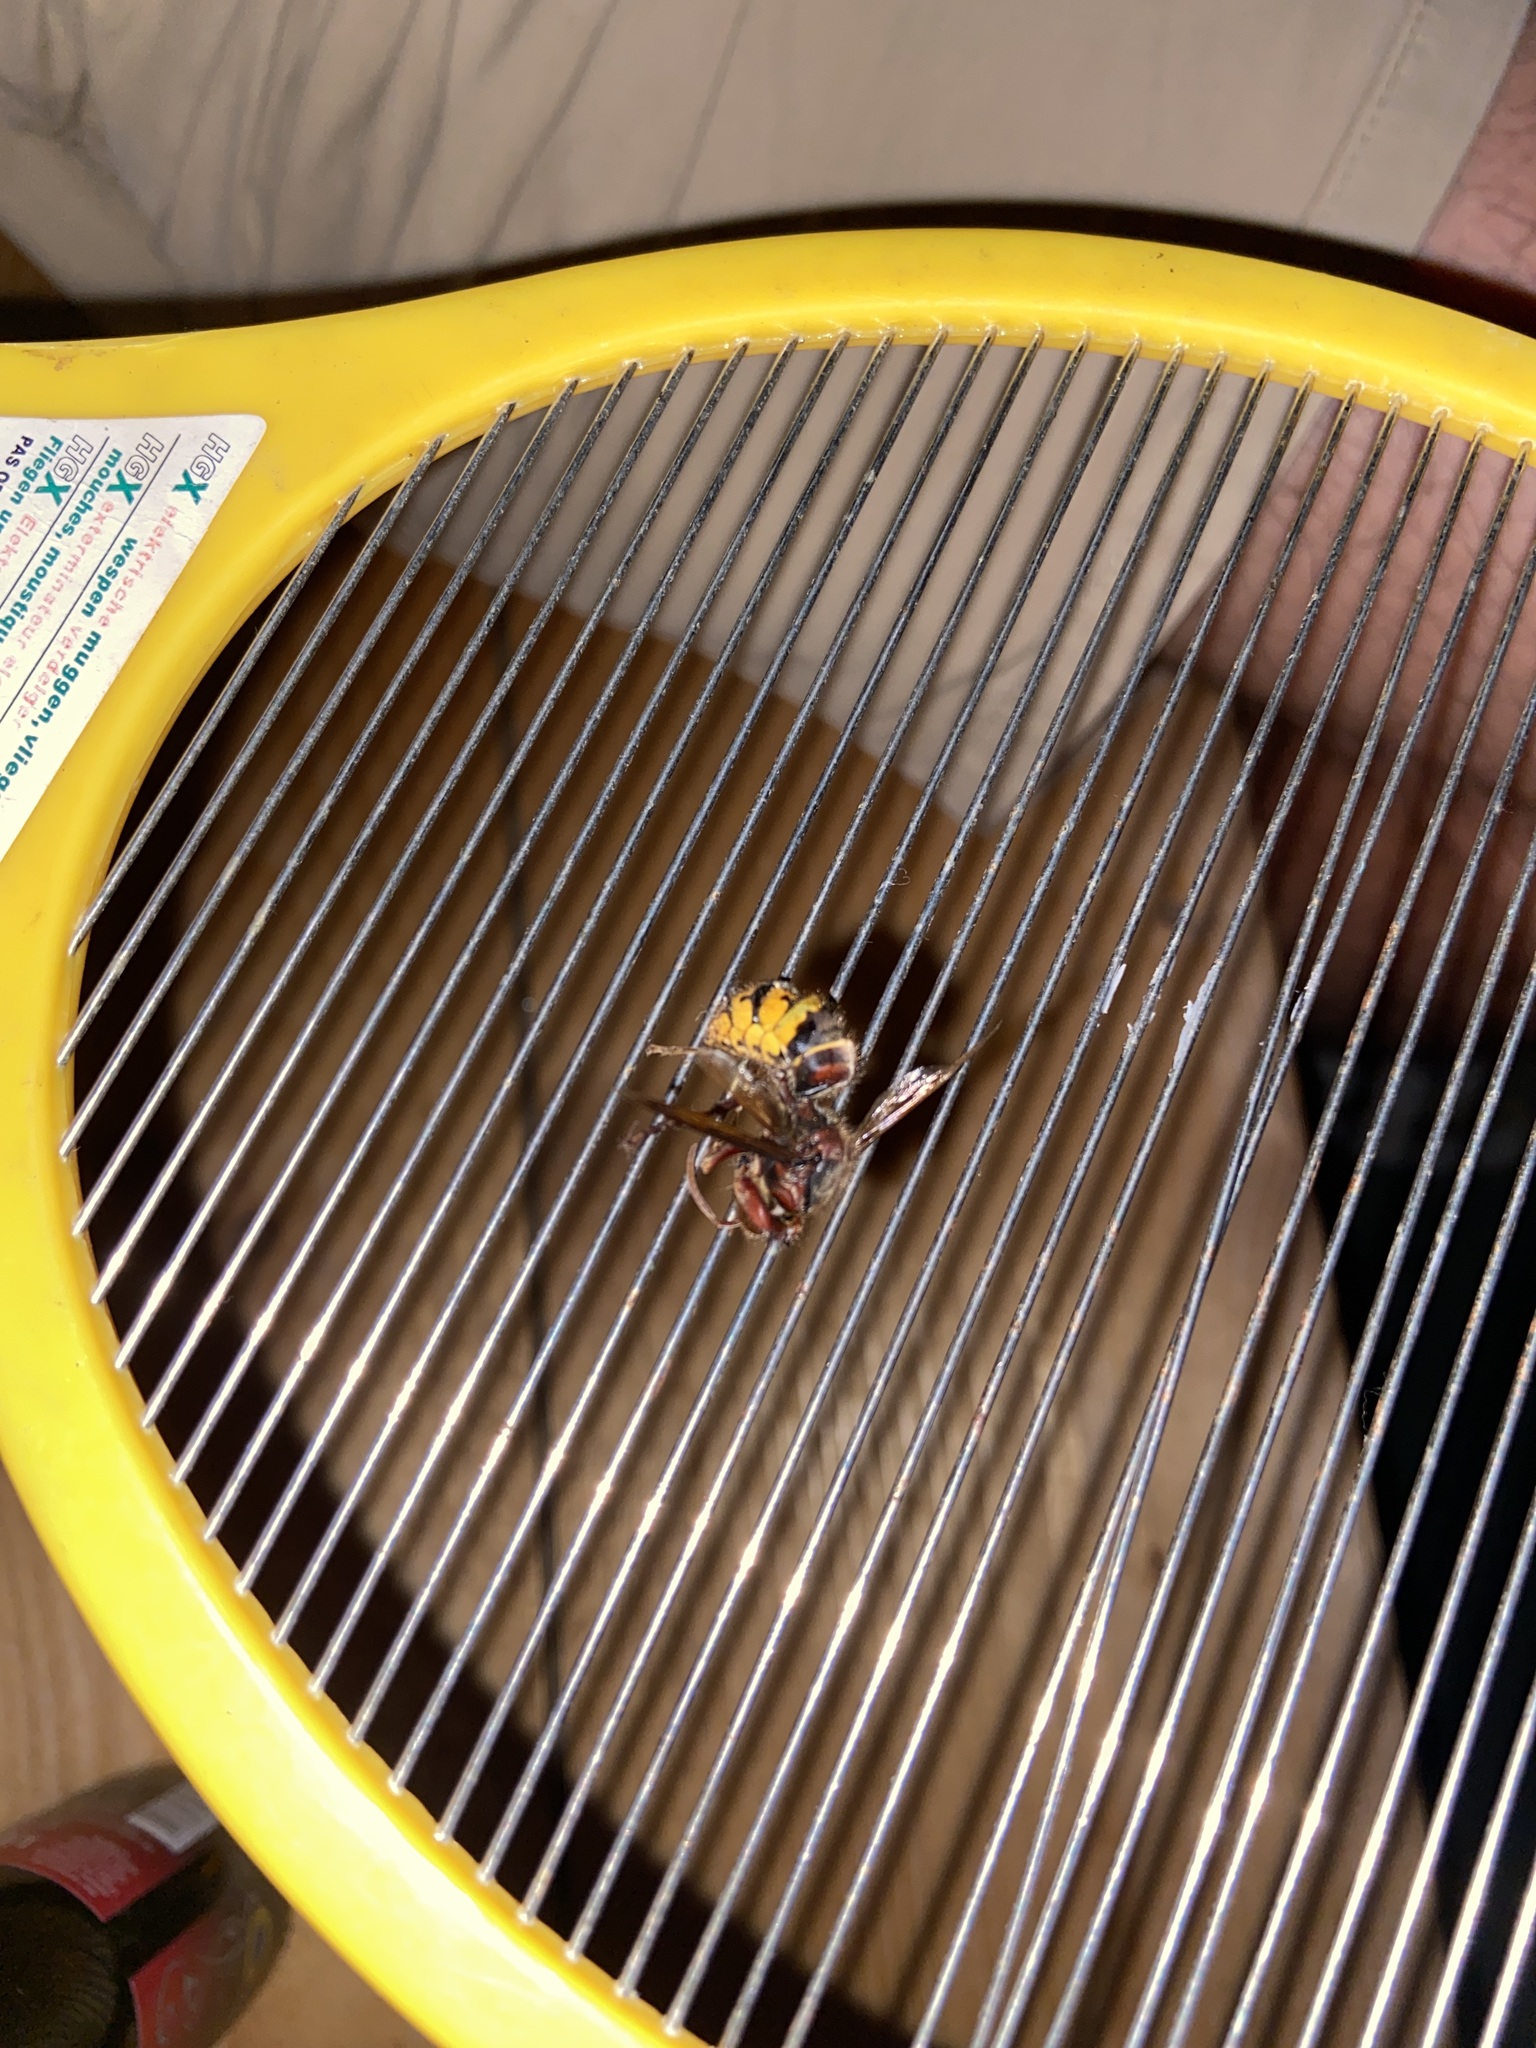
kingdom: Animalia
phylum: Arthropoda
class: Insecta
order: Hymenoptera
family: Vespidae
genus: Vespa
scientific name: Vespa crabro
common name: Hornet
